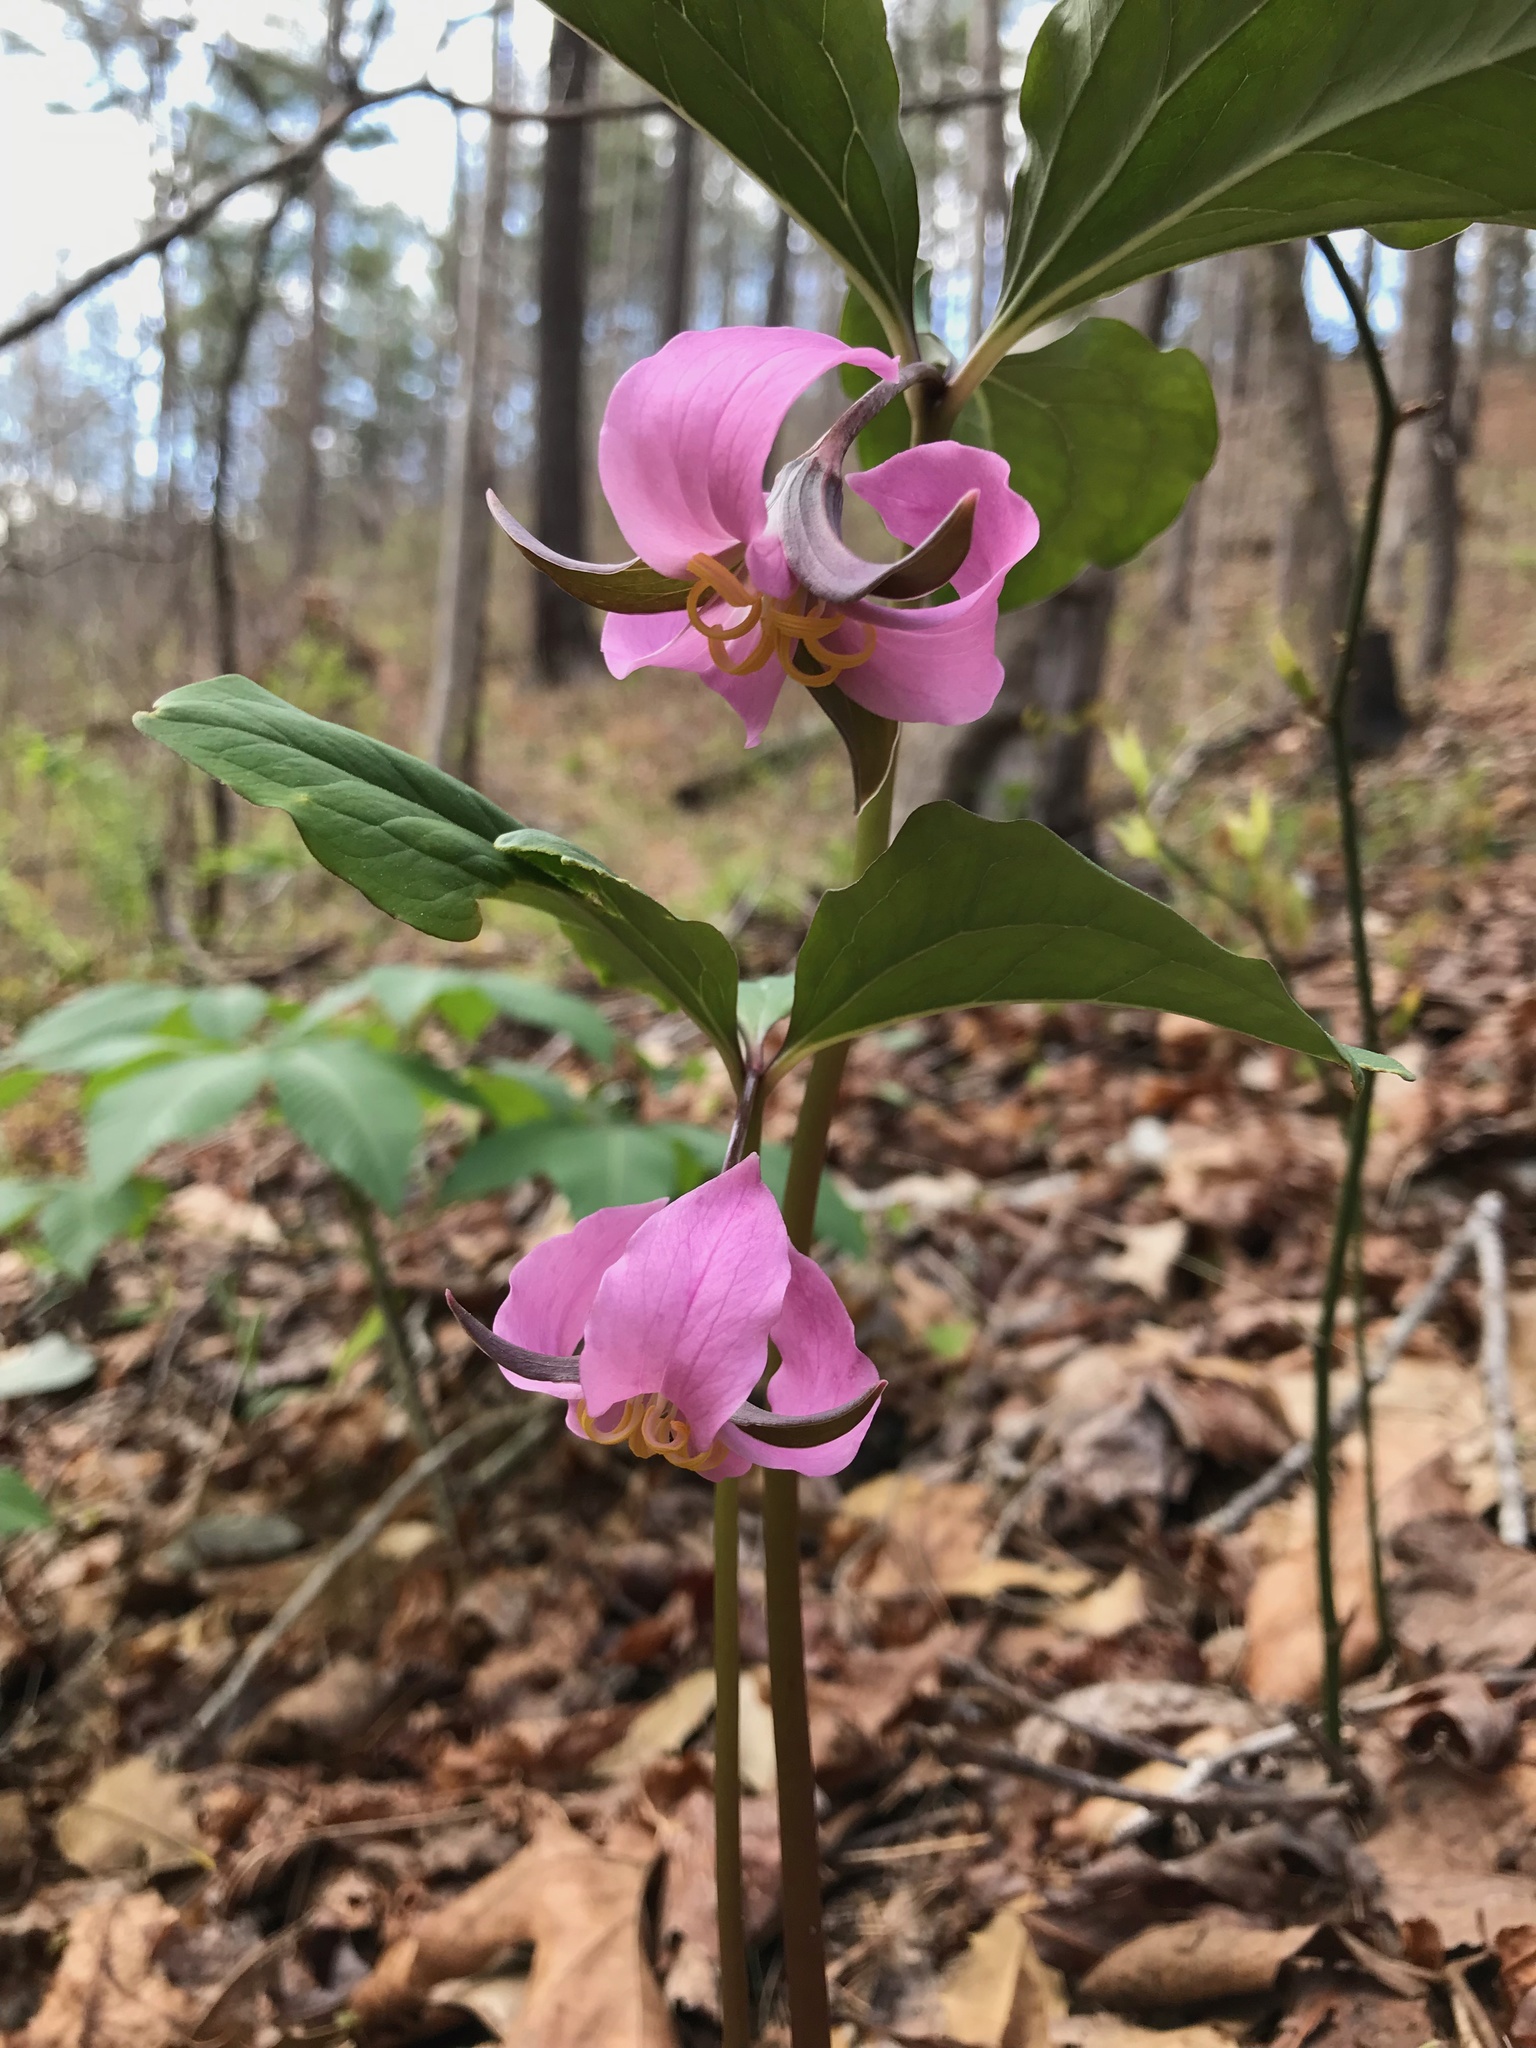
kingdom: Plantae
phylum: Tracheophyta
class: Liliopsida
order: Liliales
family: Melanthiaceae
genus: Trillium
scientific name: Trillium catesbaei
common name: Bashful trillium
